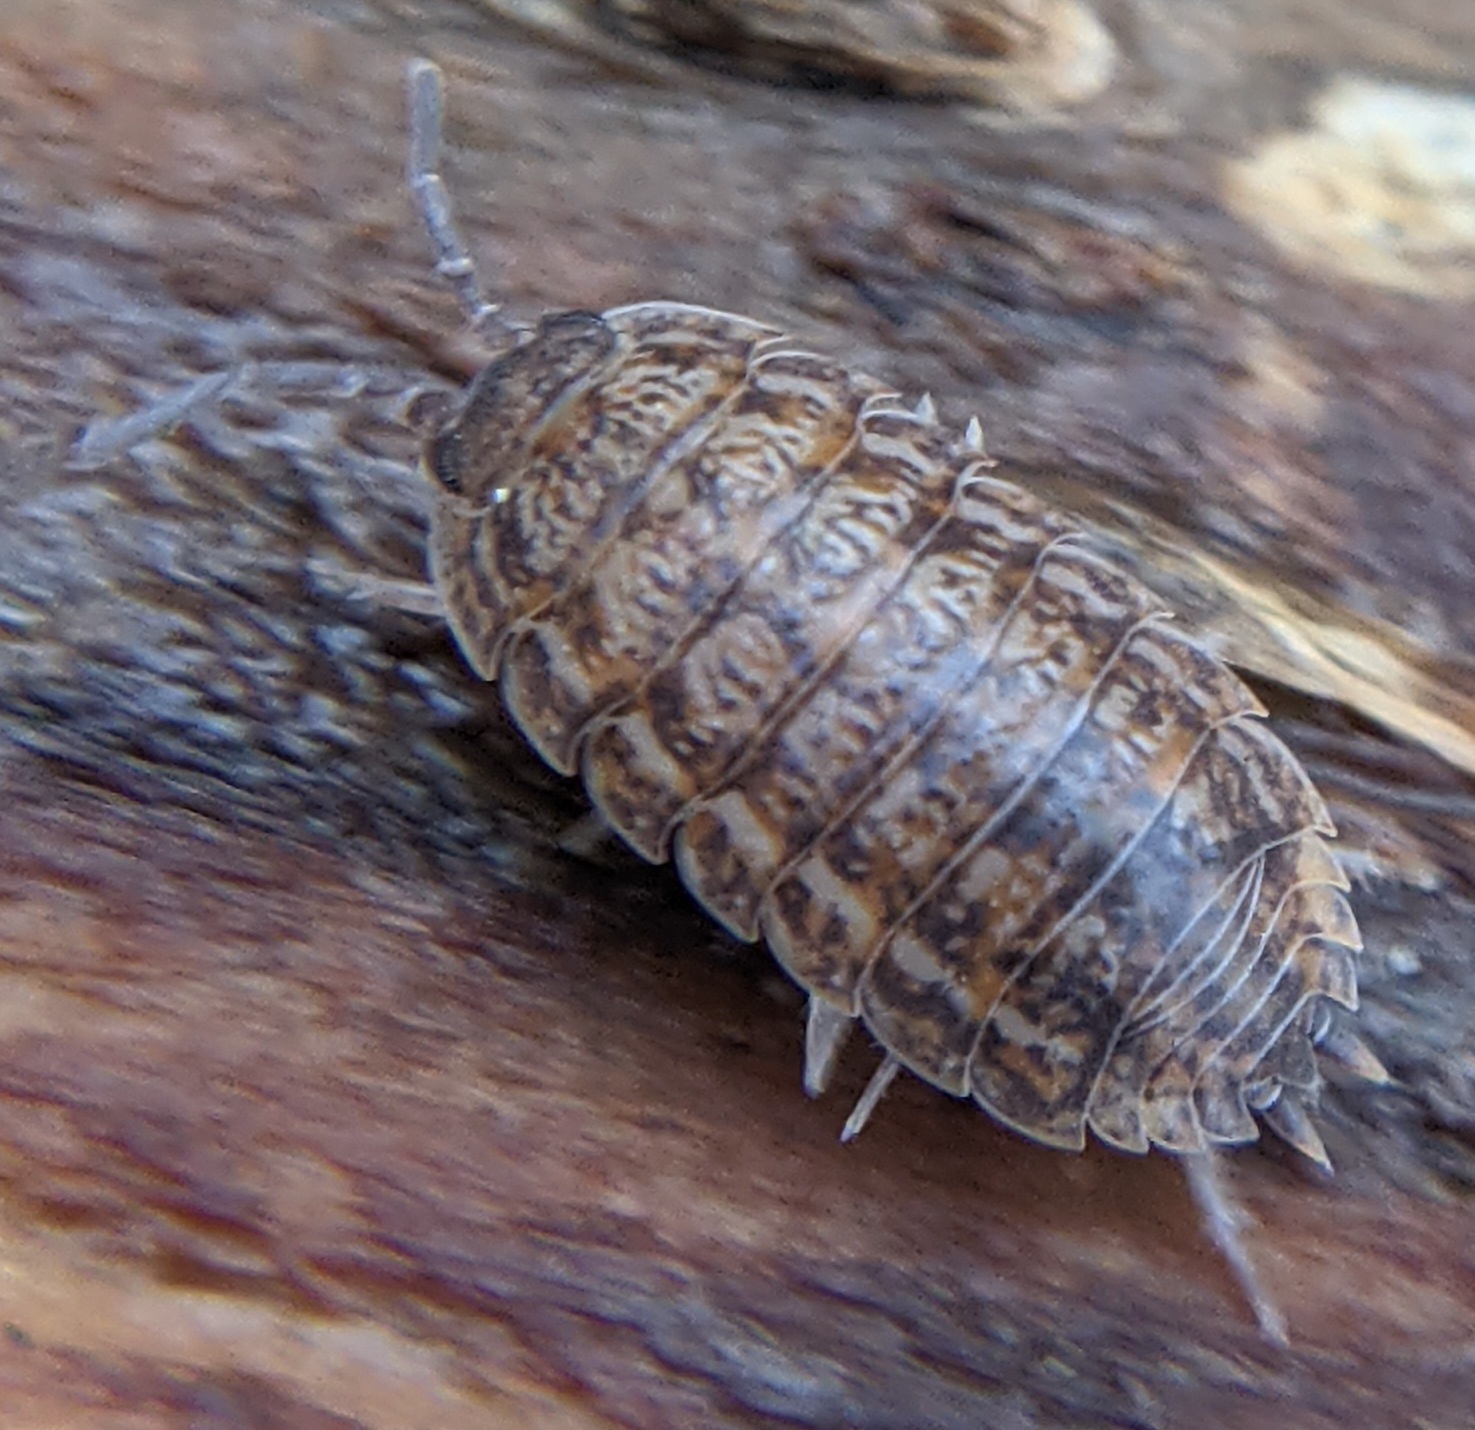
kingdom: Animalia
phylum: Arthropoda
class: Malacostraca
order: Isopoda
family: Trachelipodidae
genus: Trachelipus
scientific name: Trachelipus rathkii
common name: Isopod
